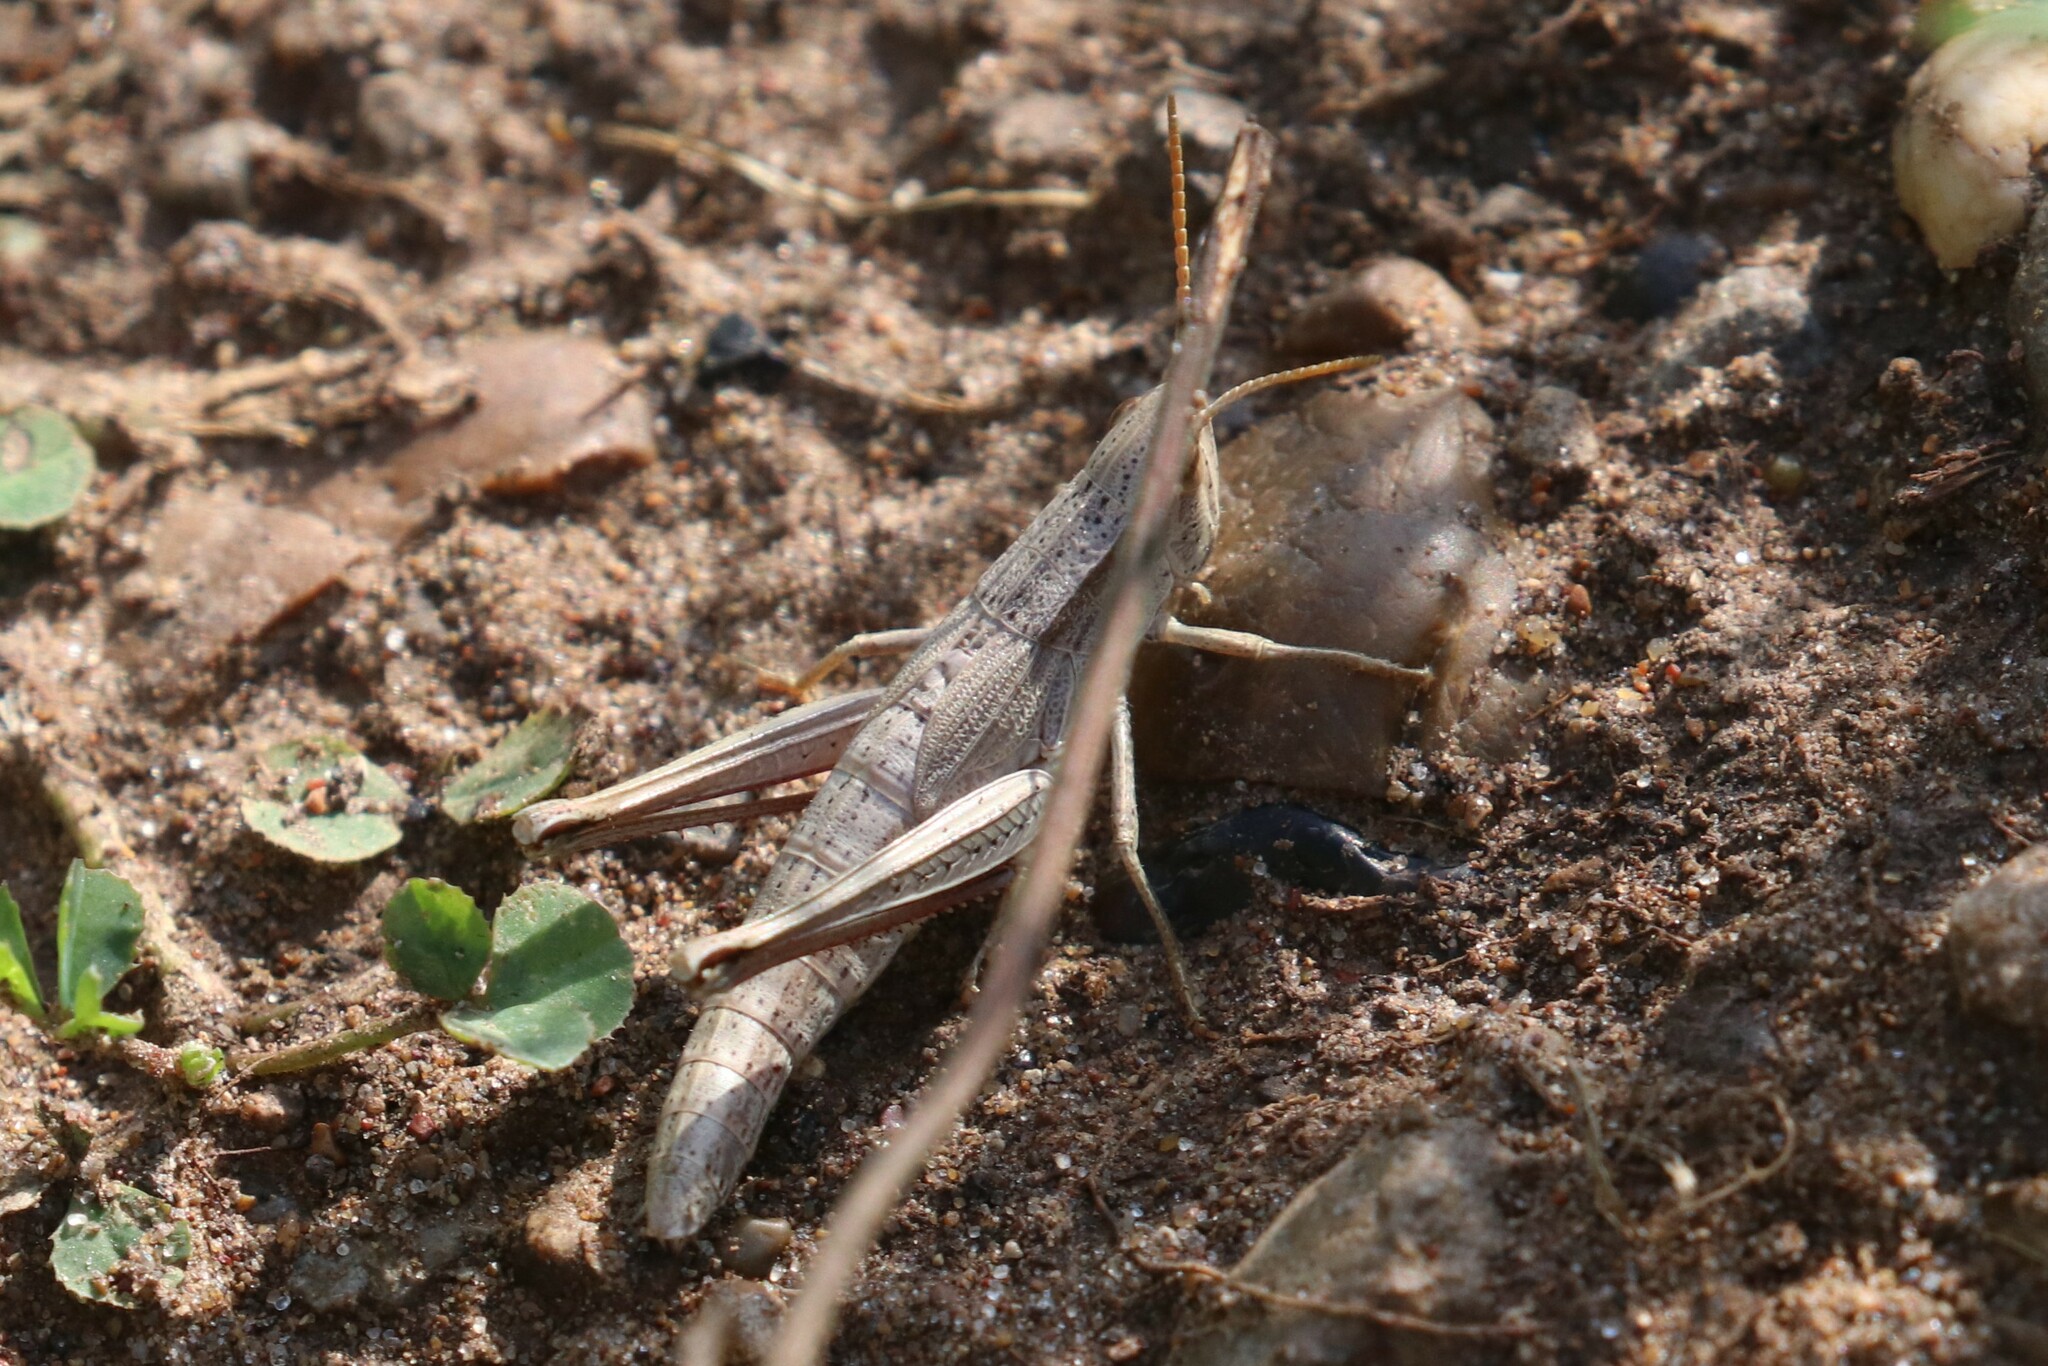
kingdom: Animalia
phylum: Arthropoda
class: Insecta
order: Orthoptera
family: Acrididae
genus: Chrysochraon
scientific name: Chrysochraon dispar
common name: Large gold grasshopper
